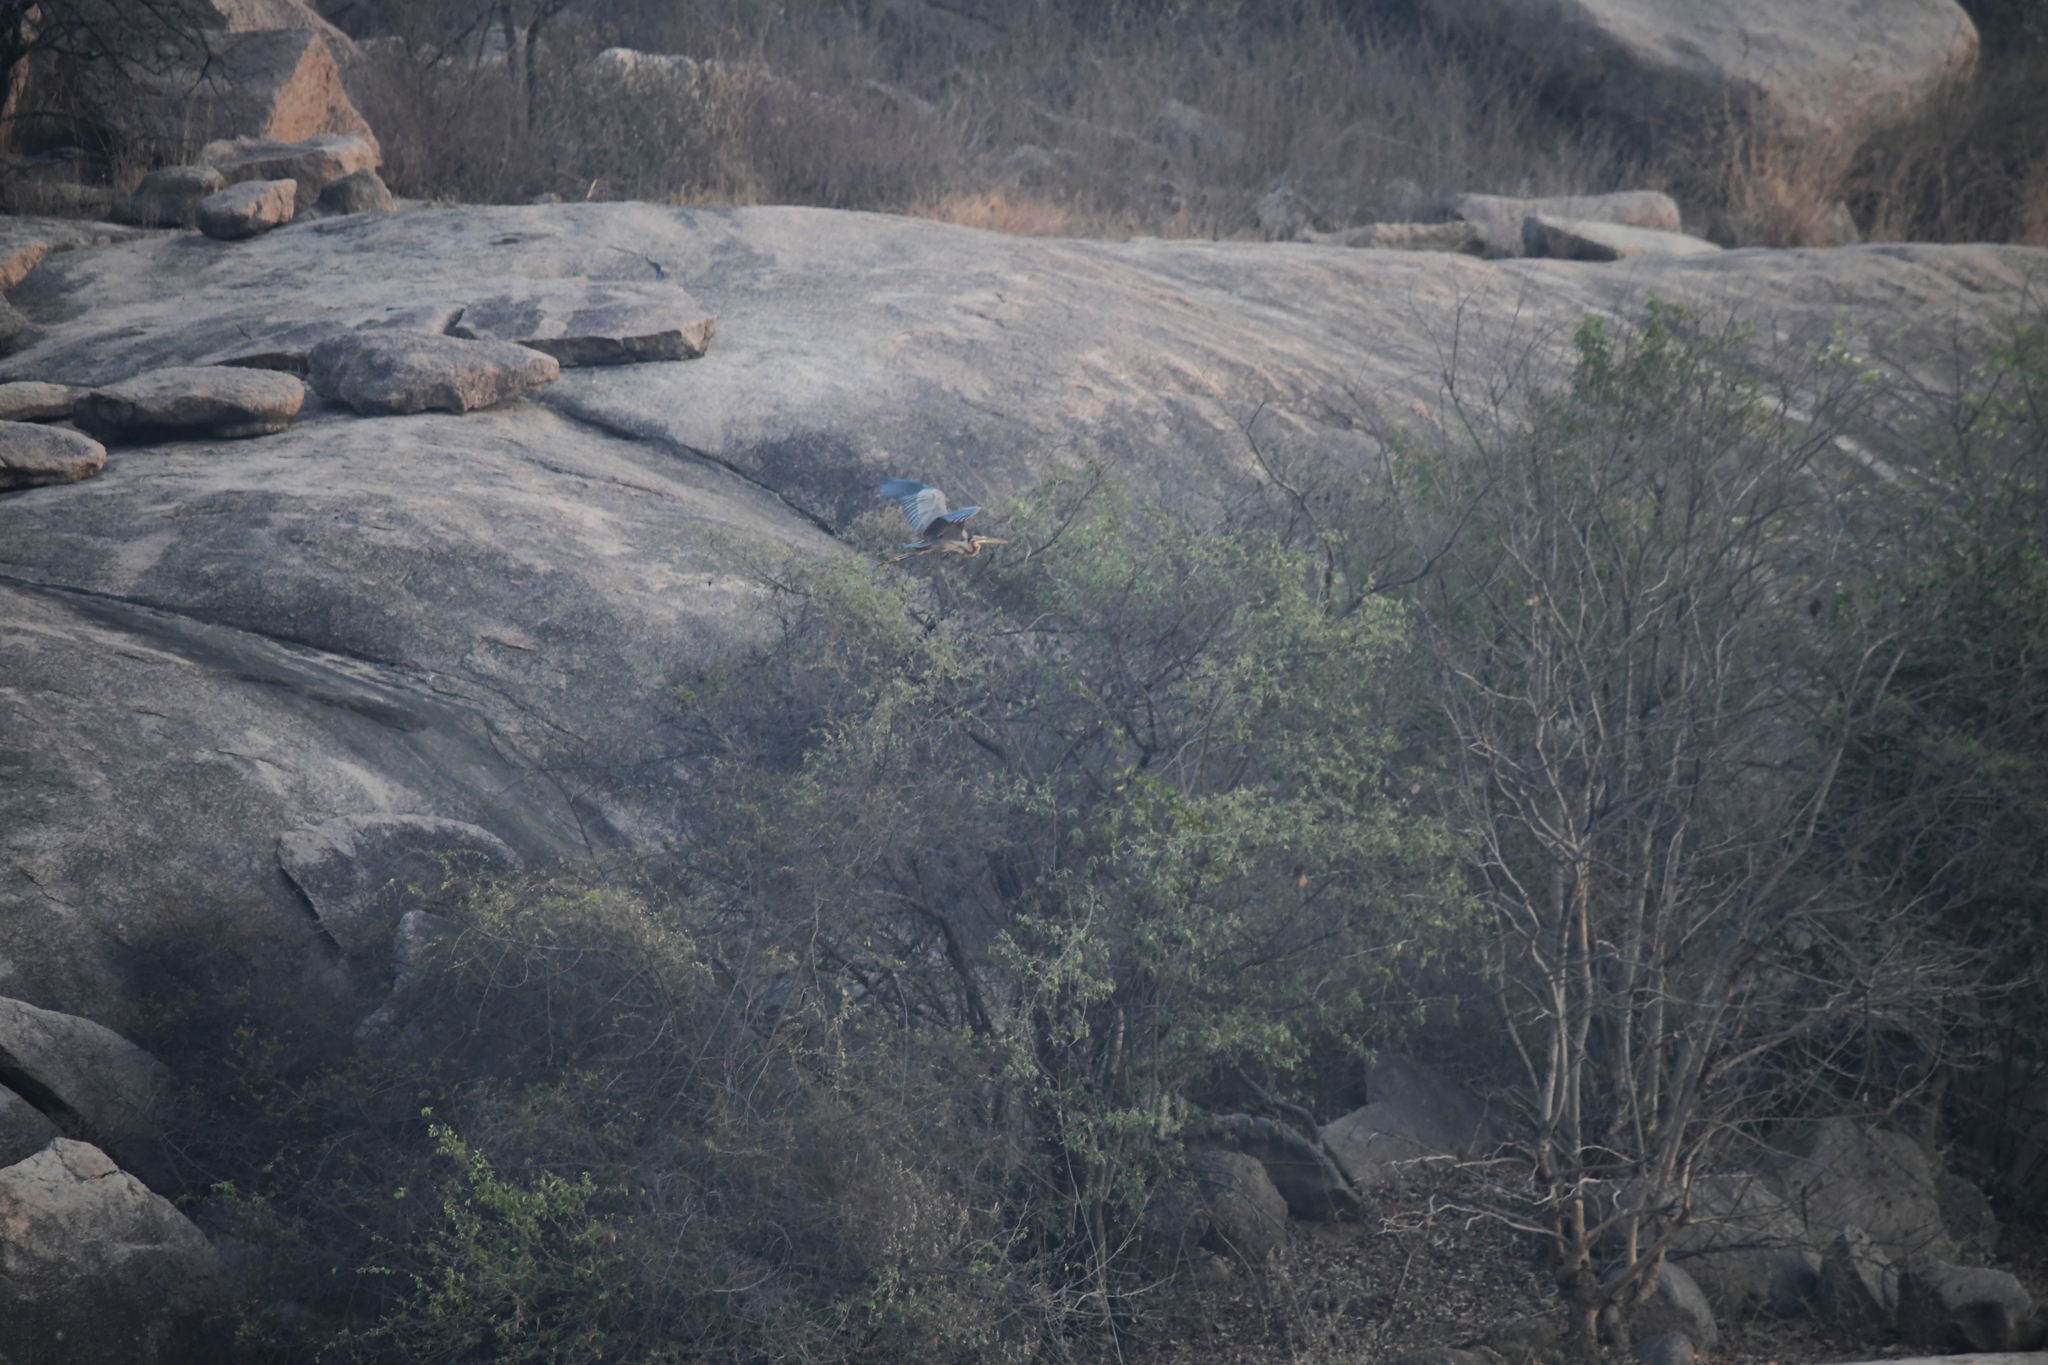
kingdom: Animalia
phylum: Chordata
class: Aves
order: Pelecaniformes
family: Ardeidae
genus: Ardea
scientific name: Ardea purpurea
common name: Purple heron
